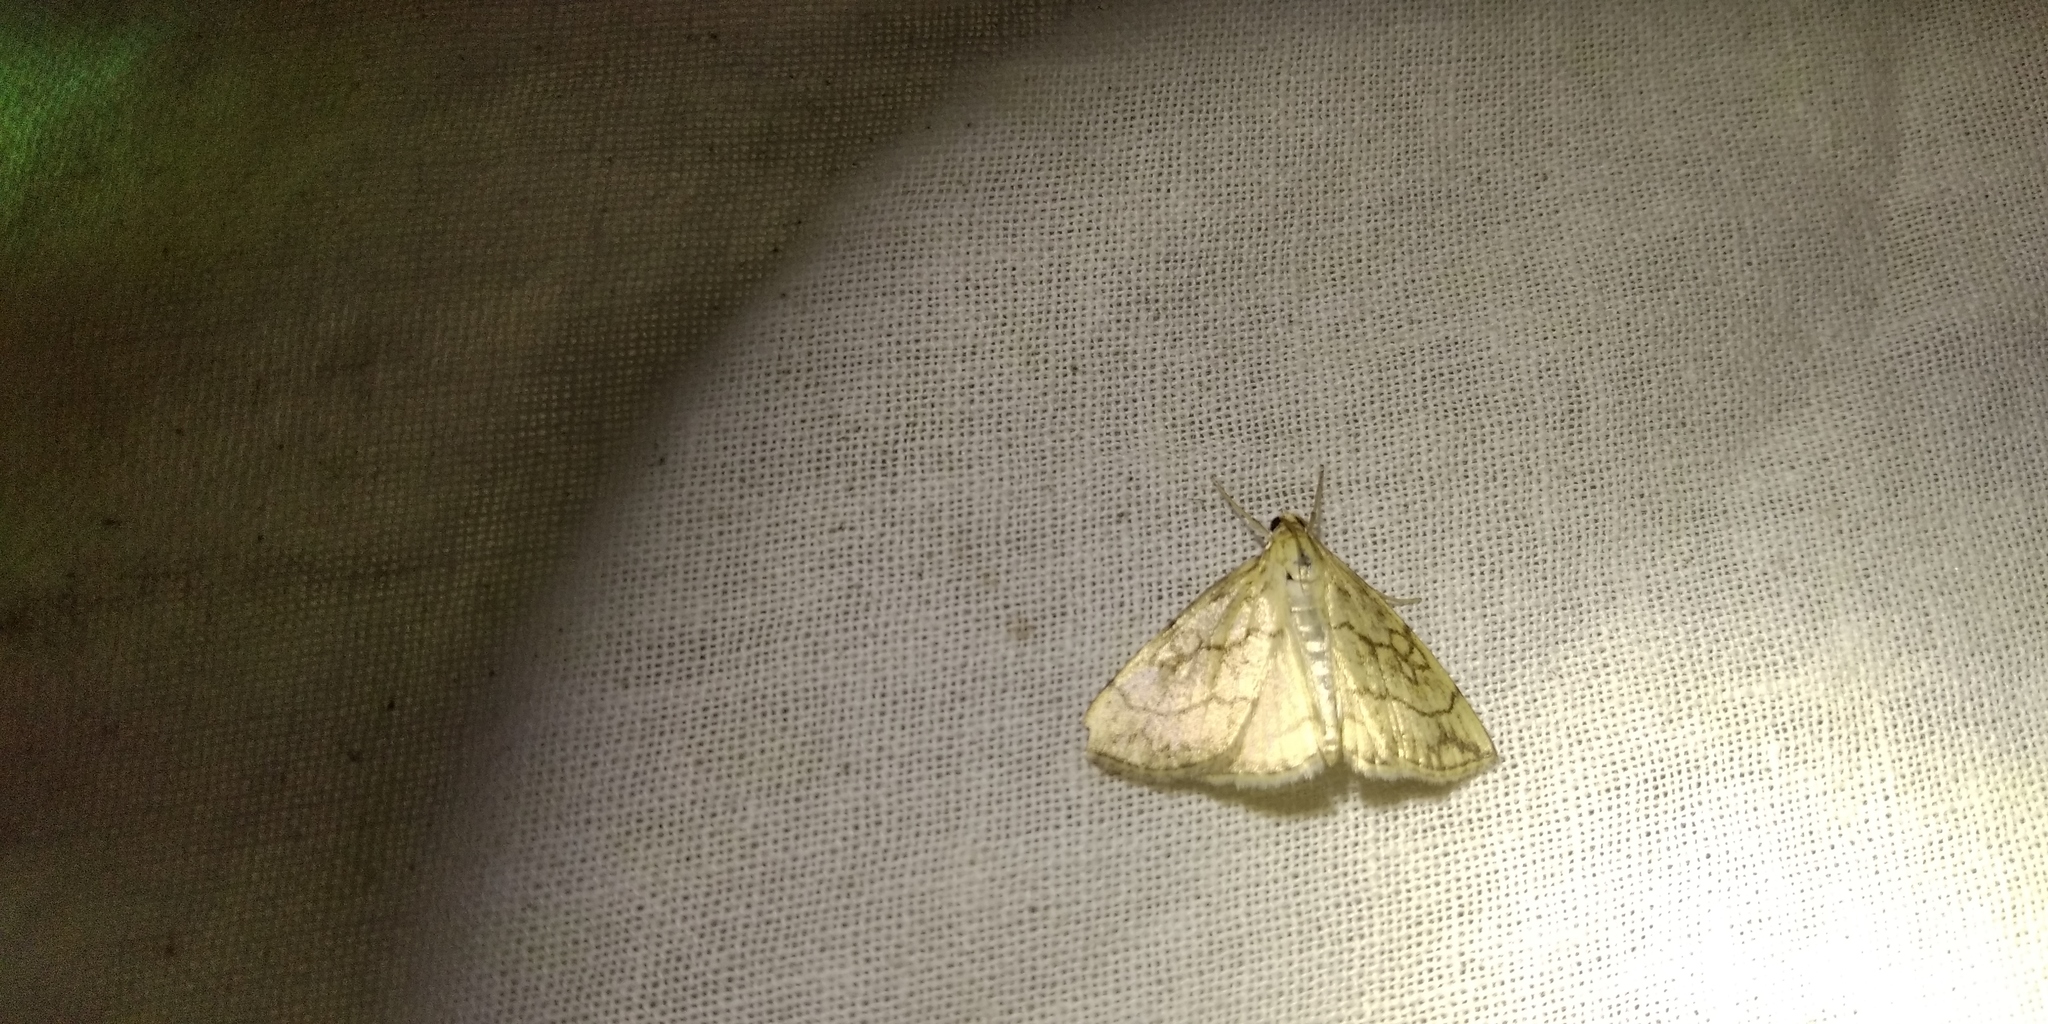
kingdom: Animalia
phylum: Arthropoda
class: Insecta
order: Lepidoptera
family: Crambidae
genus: Evergestis
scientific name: Evergestis pallidata
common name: Chequered pearl
